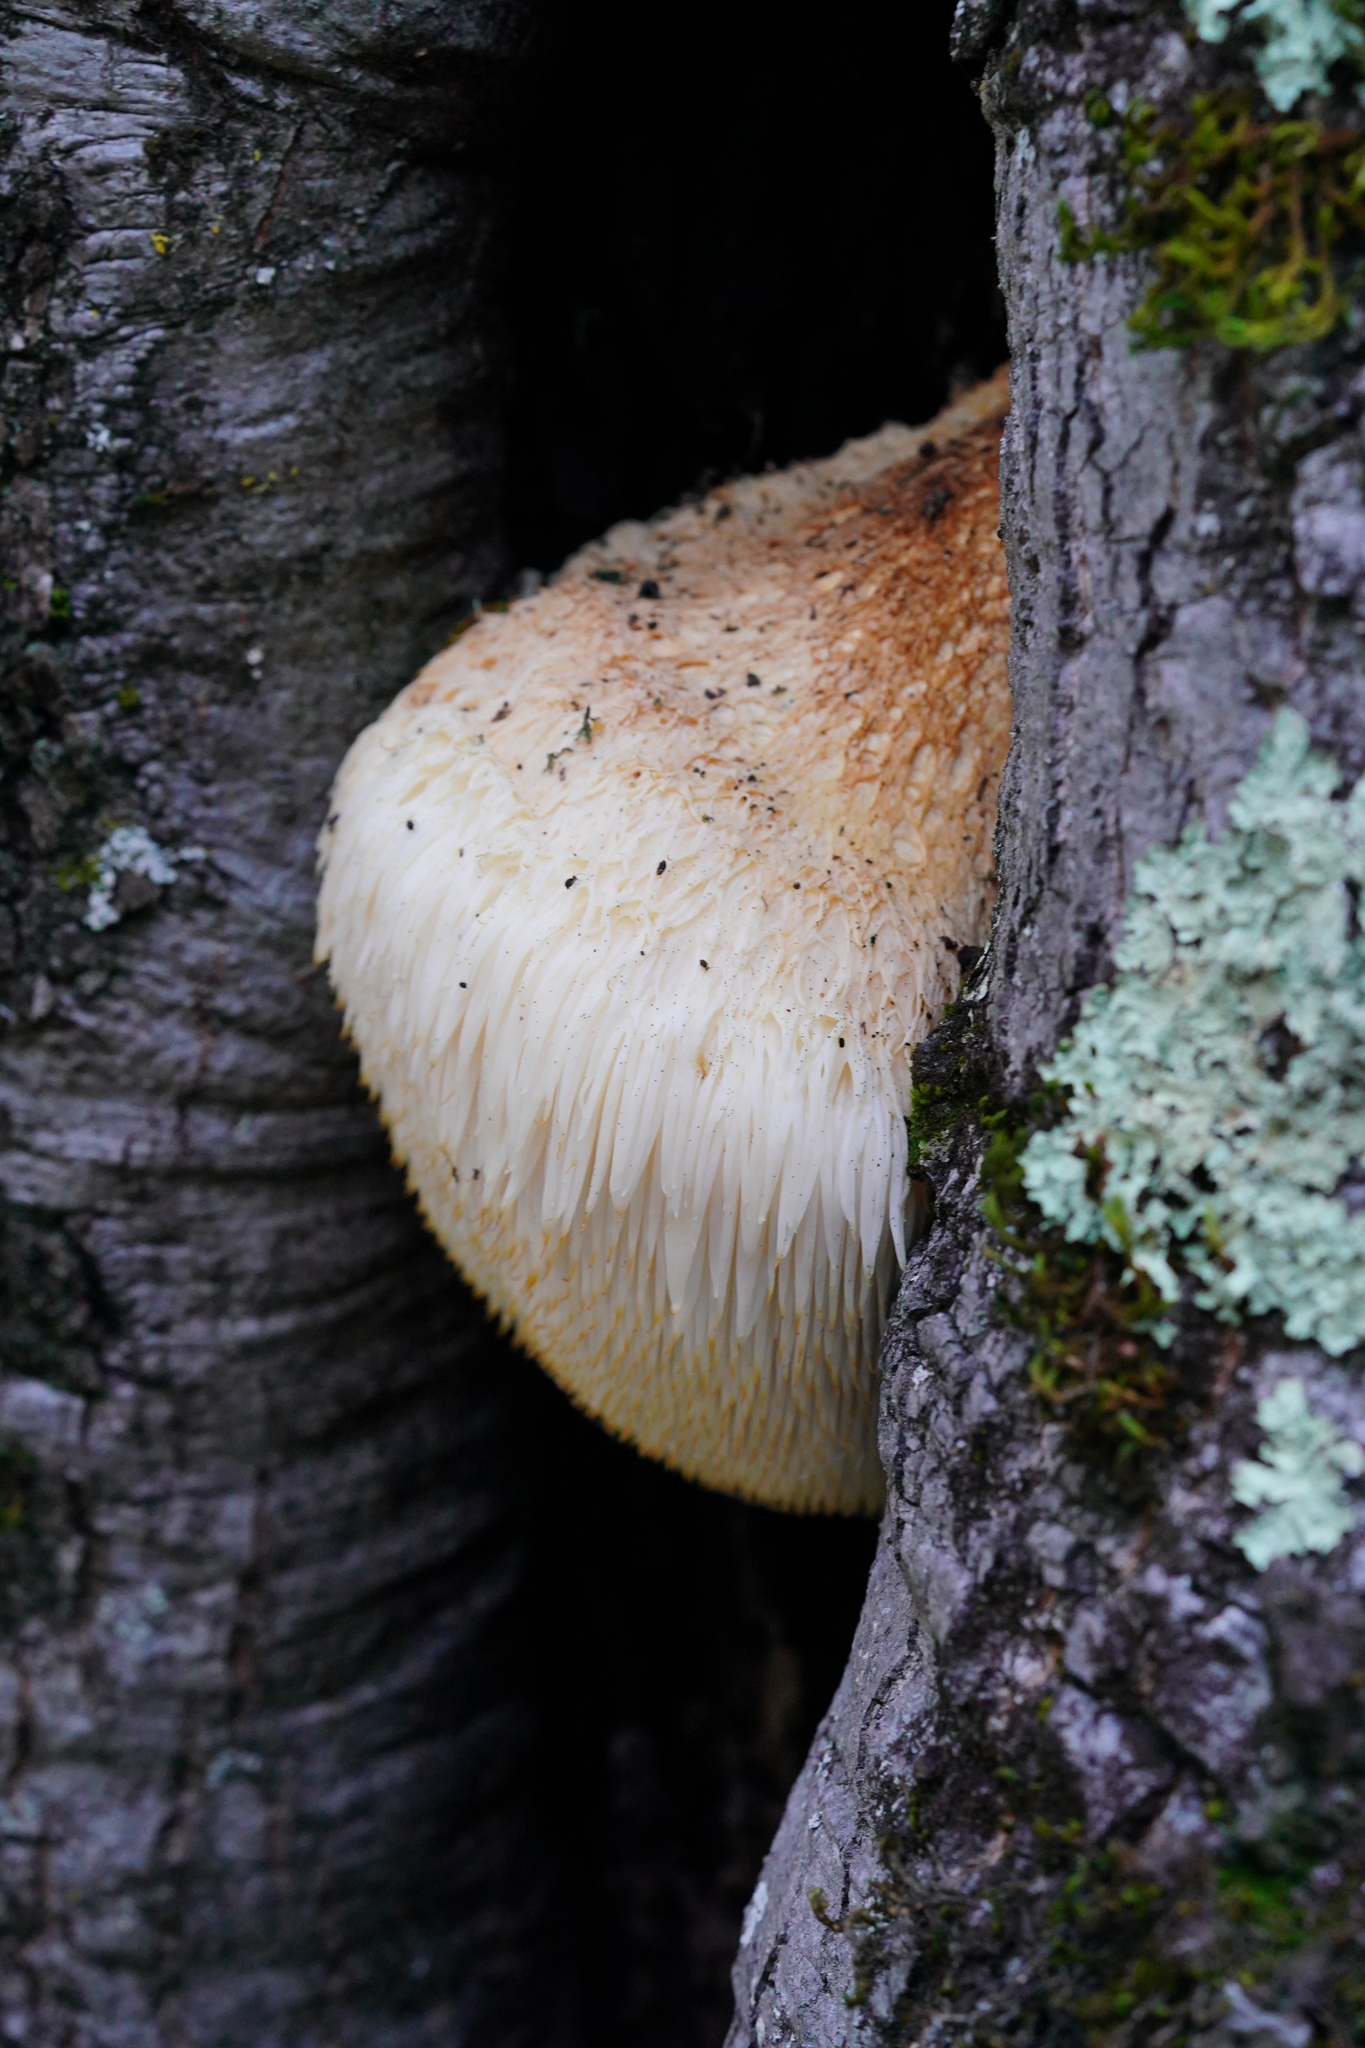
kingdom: Fungi
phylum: Basidiomycota
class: Agaricomycetes
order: Russulales
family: Hericiaceae
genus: Hericium
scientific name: Hericium erinaceus
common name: Bearded tooth
